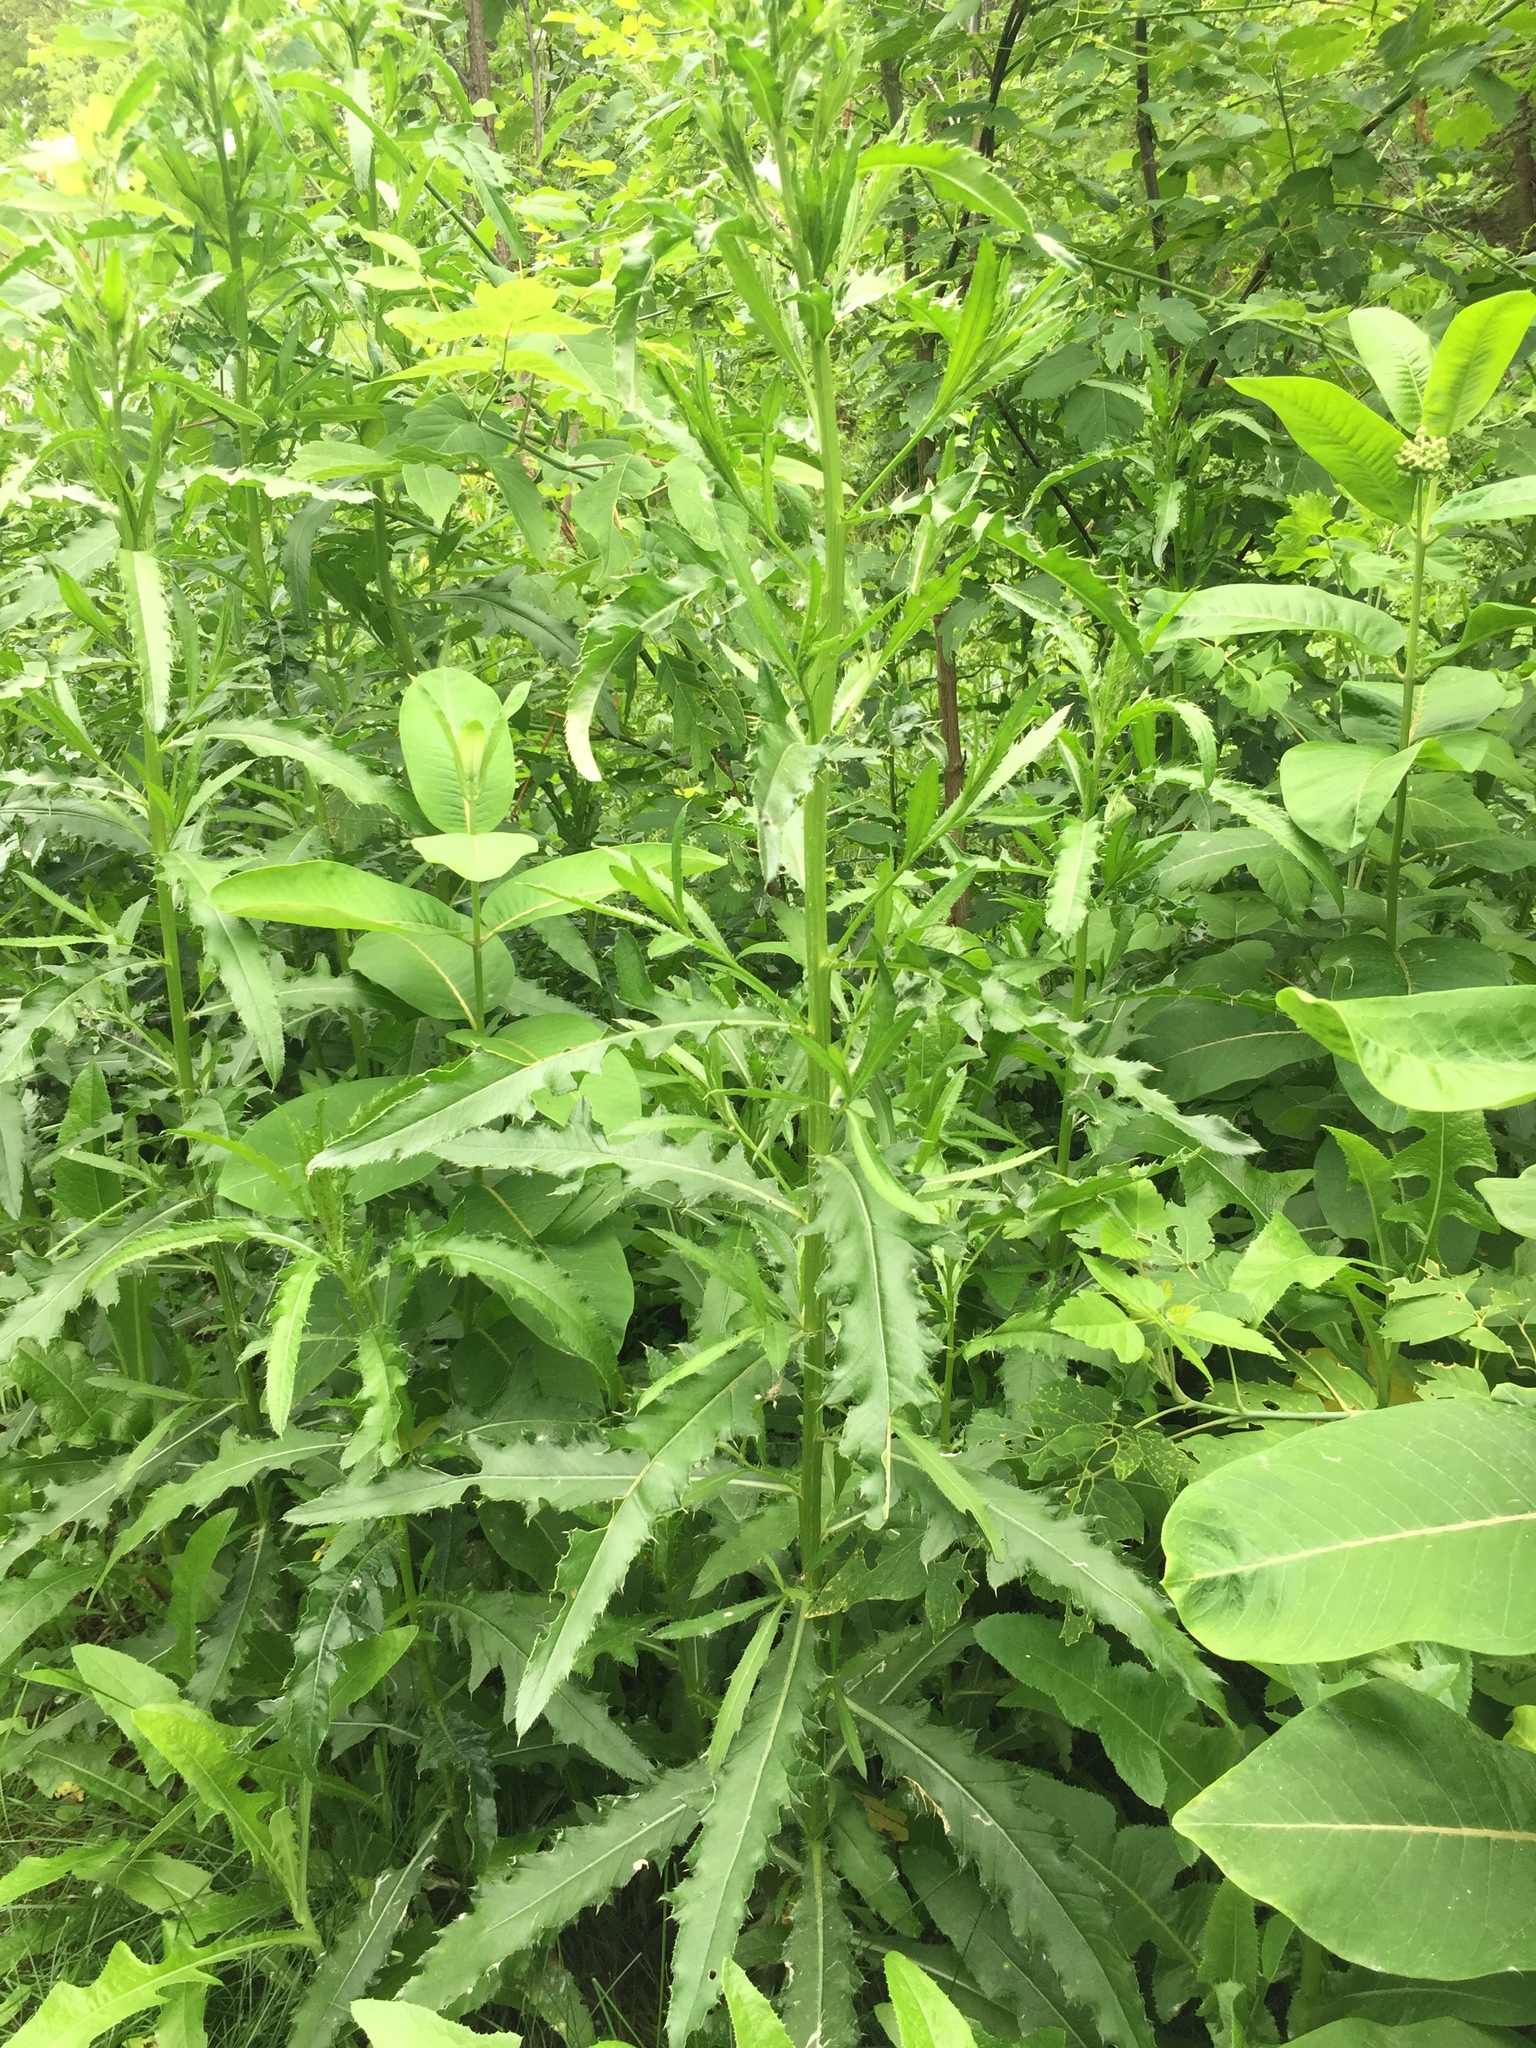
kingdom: Plantae
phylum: Tracheophyta
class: Magnoliopsida
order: Asterales
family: Asteraceae
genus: Cirsium
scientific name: Cirsium arvense
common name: Creeping thistle
